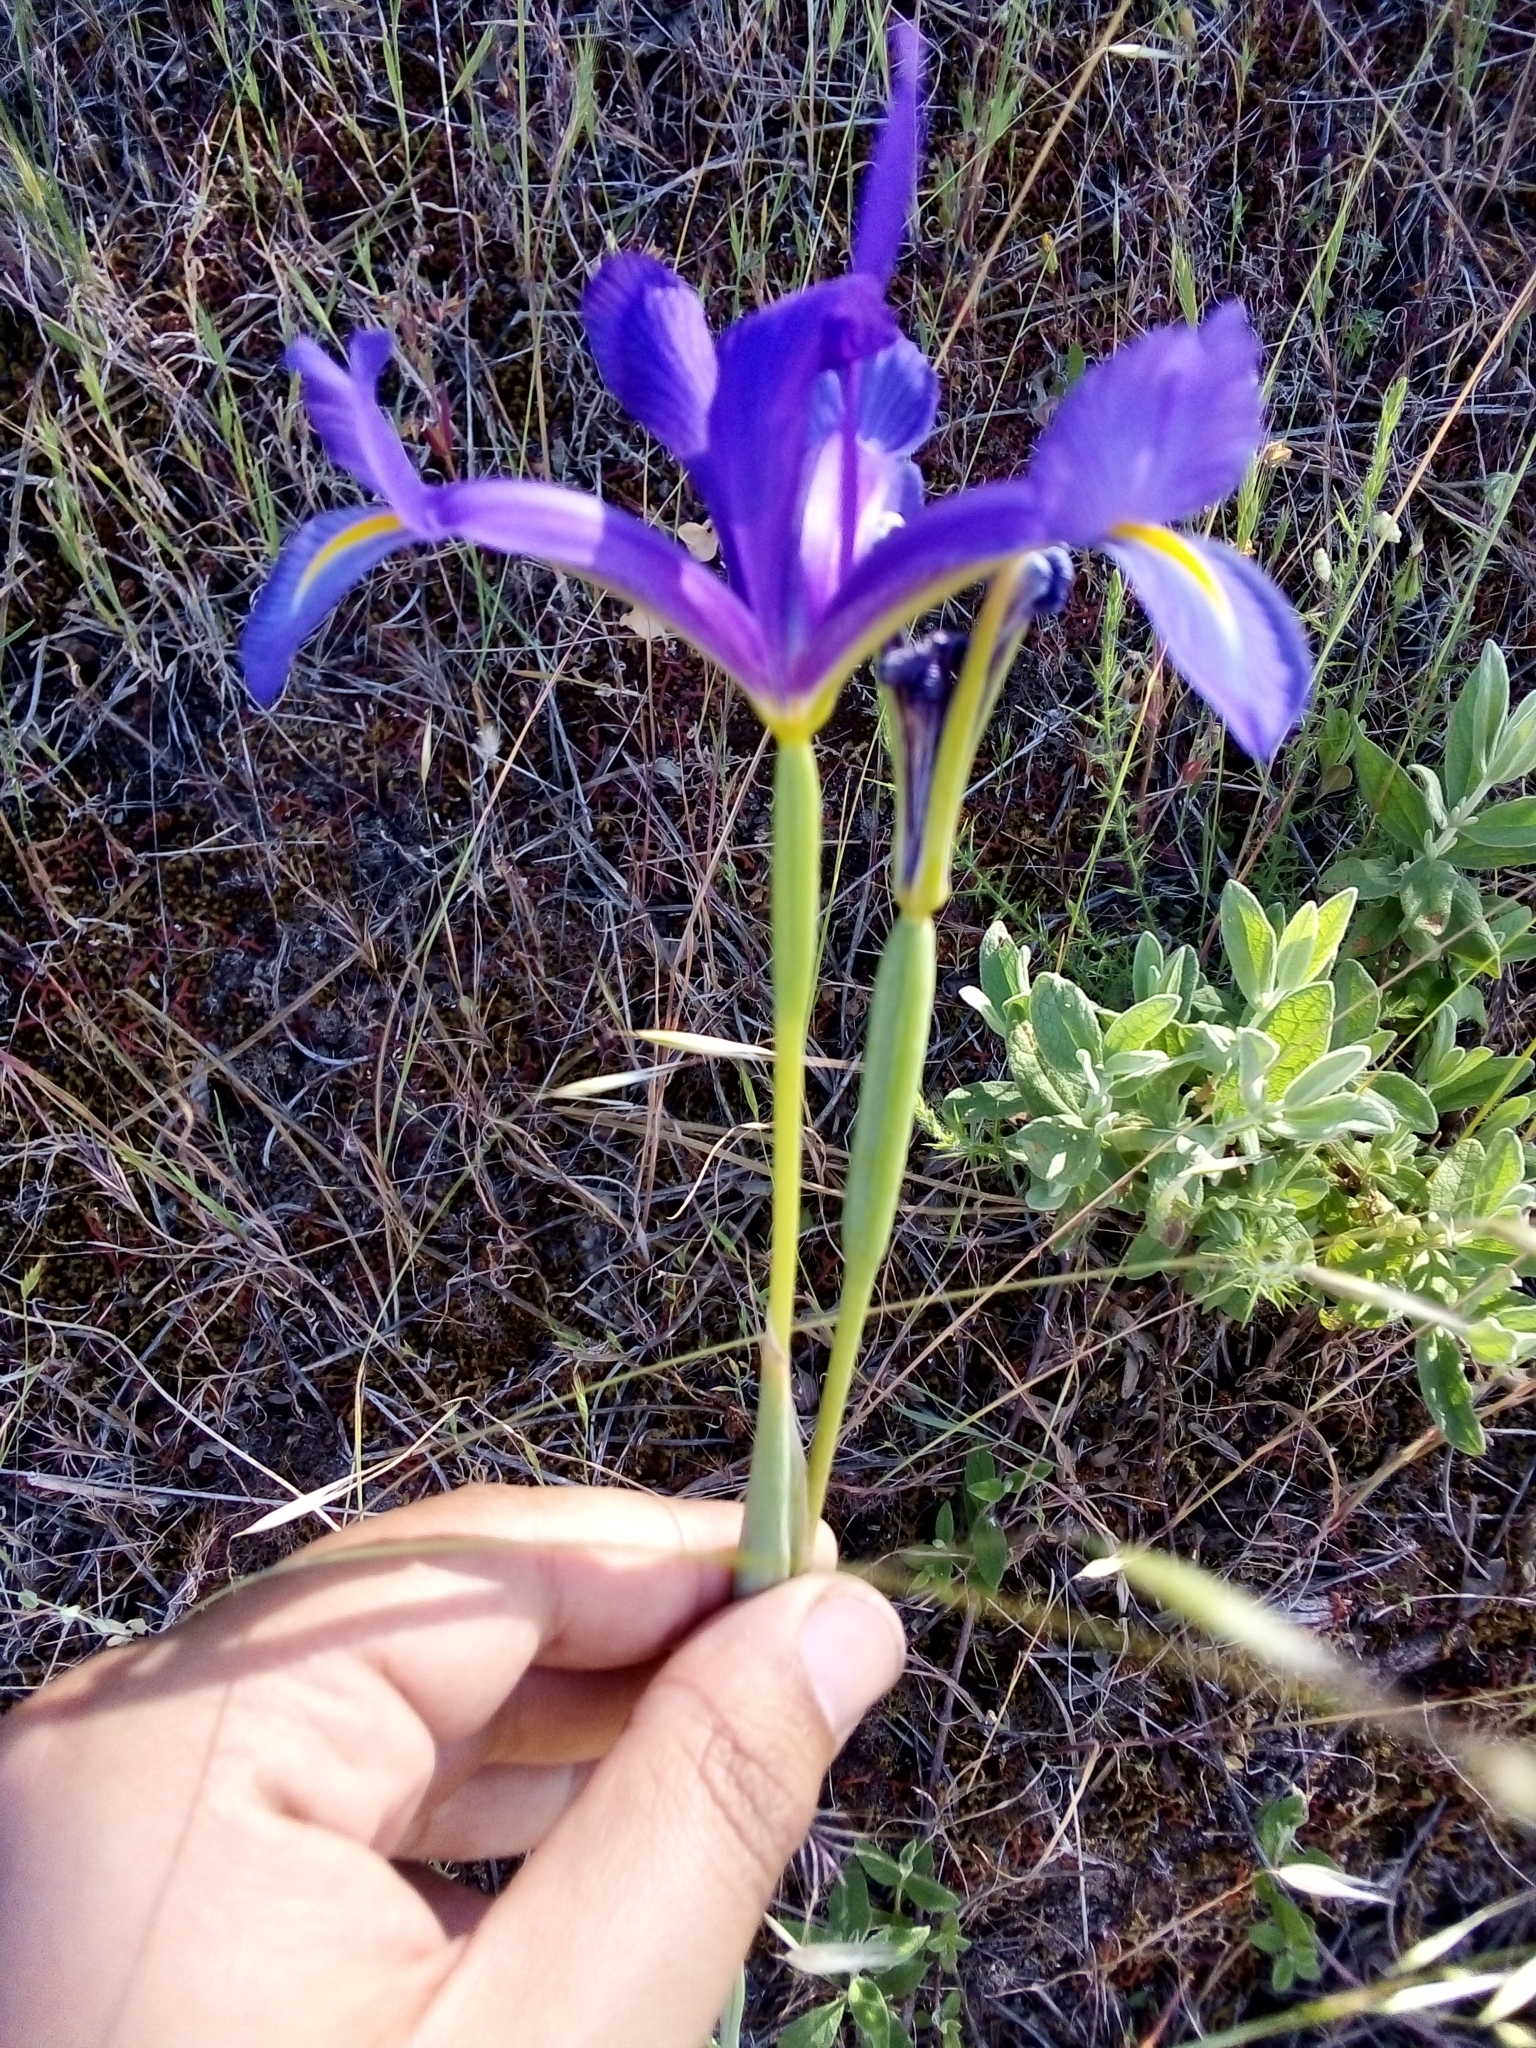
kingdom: Plantae
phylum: Tracheophyta
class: Liliopsida
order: Asparagales
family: Iridaceae
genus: Iris
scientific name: Iris xiphium
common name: Spanish iris
